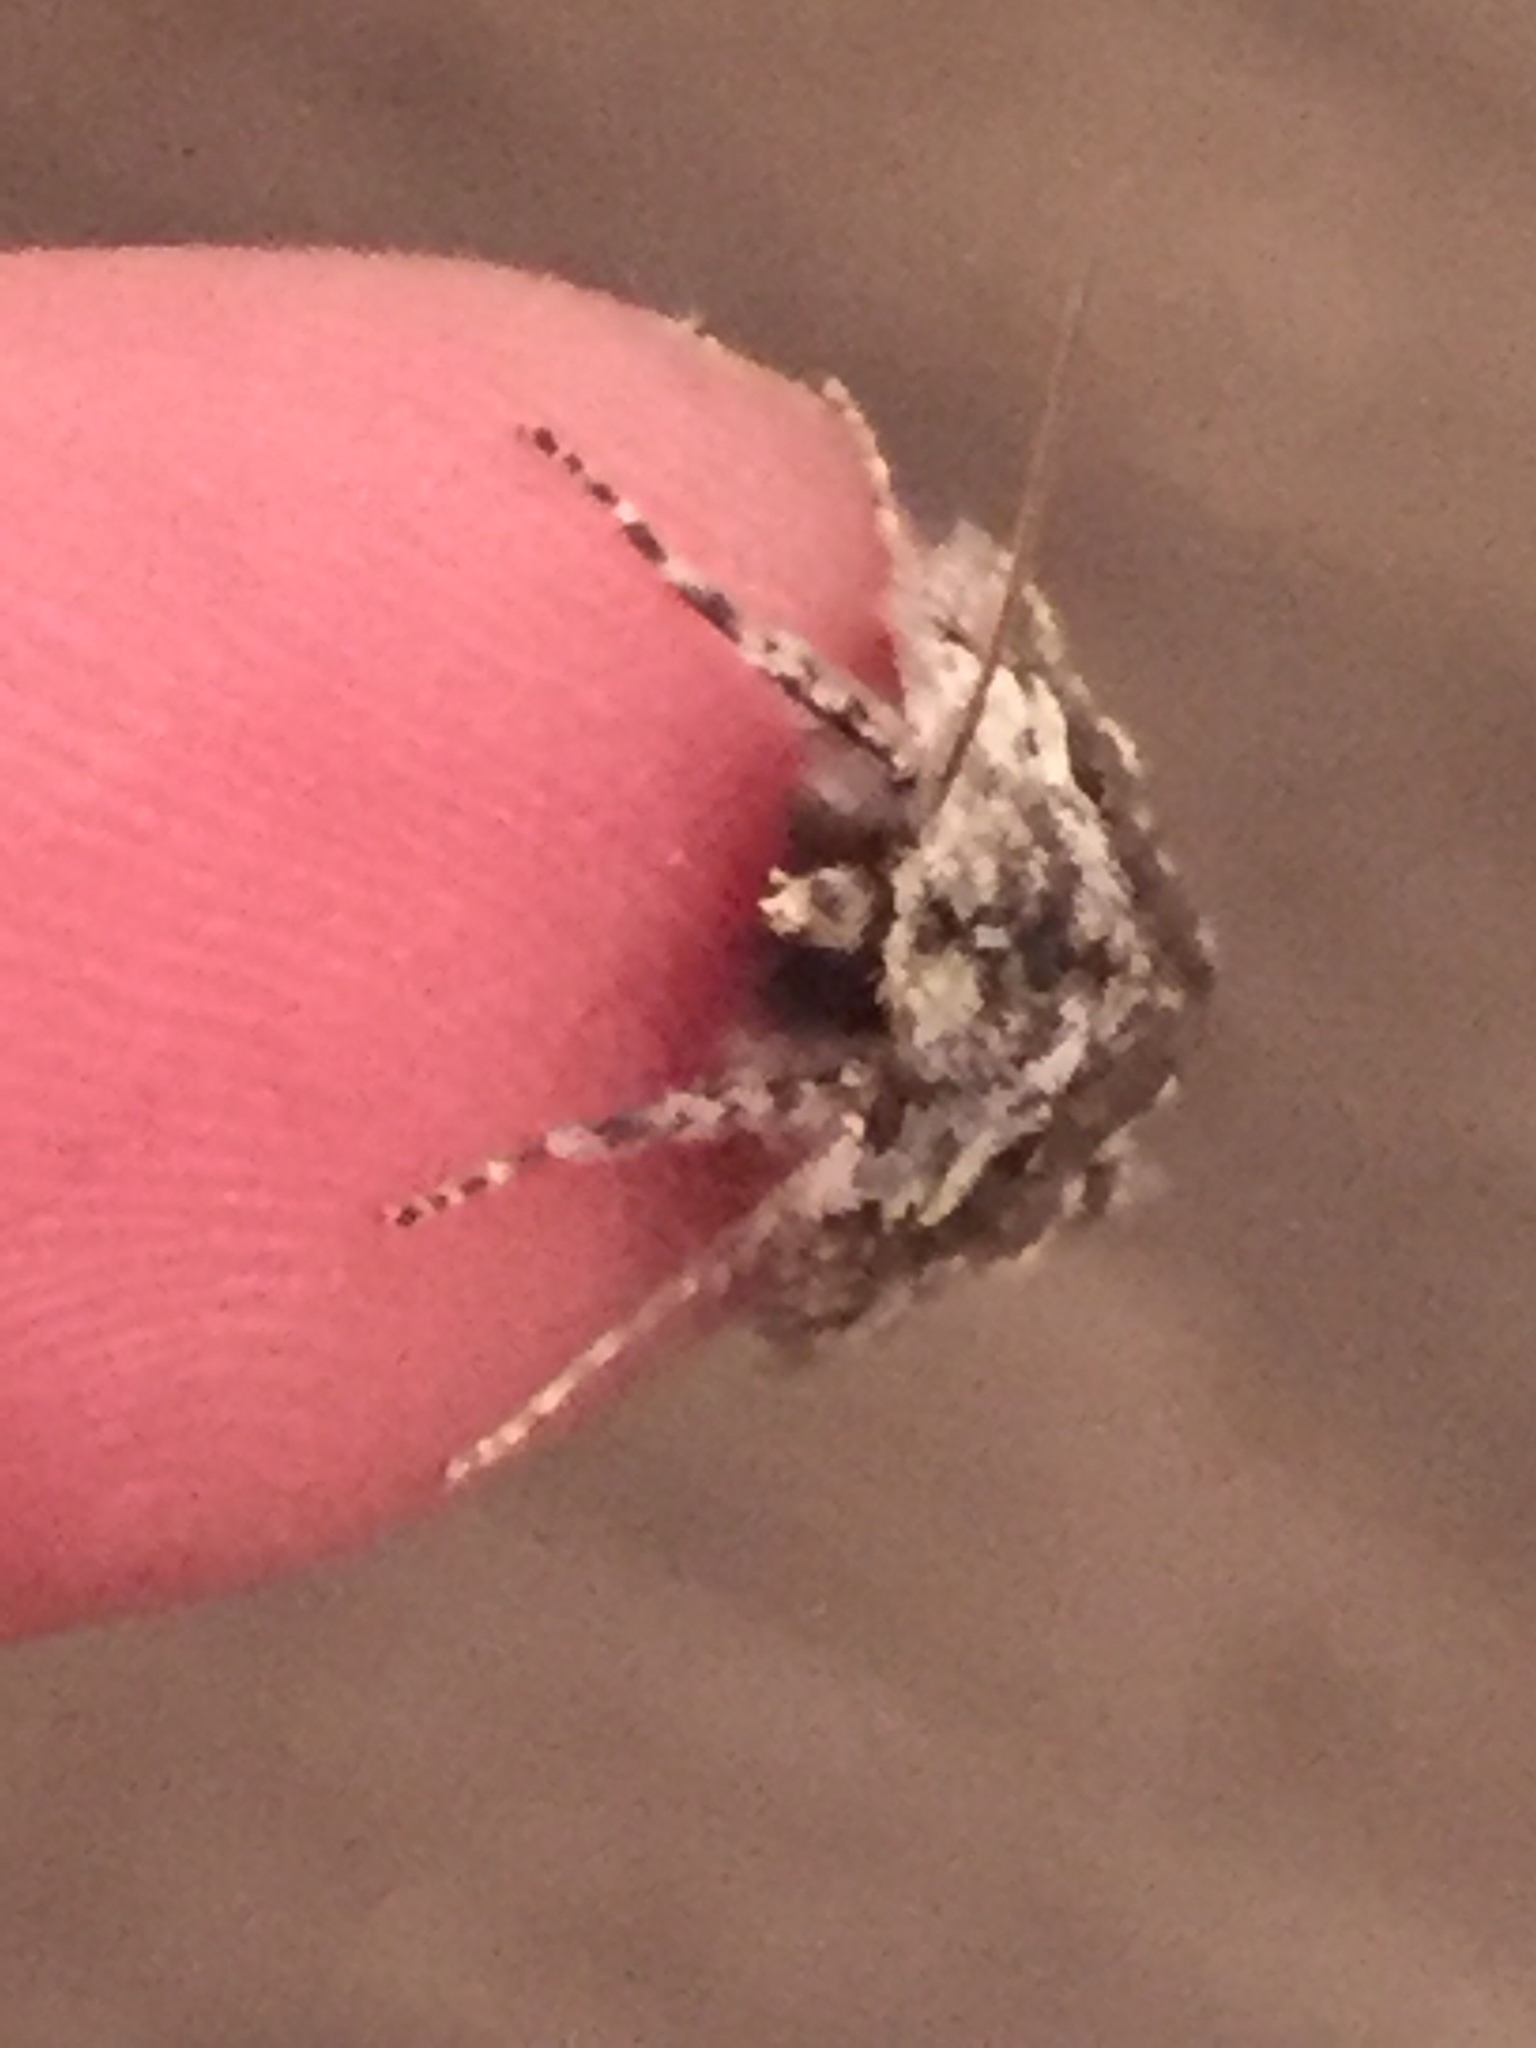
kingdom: Animalia
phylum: Arthropoda
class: Insecta
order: Lepidoptera
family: Geometridae
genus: Declana
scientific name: Declana floccosa
